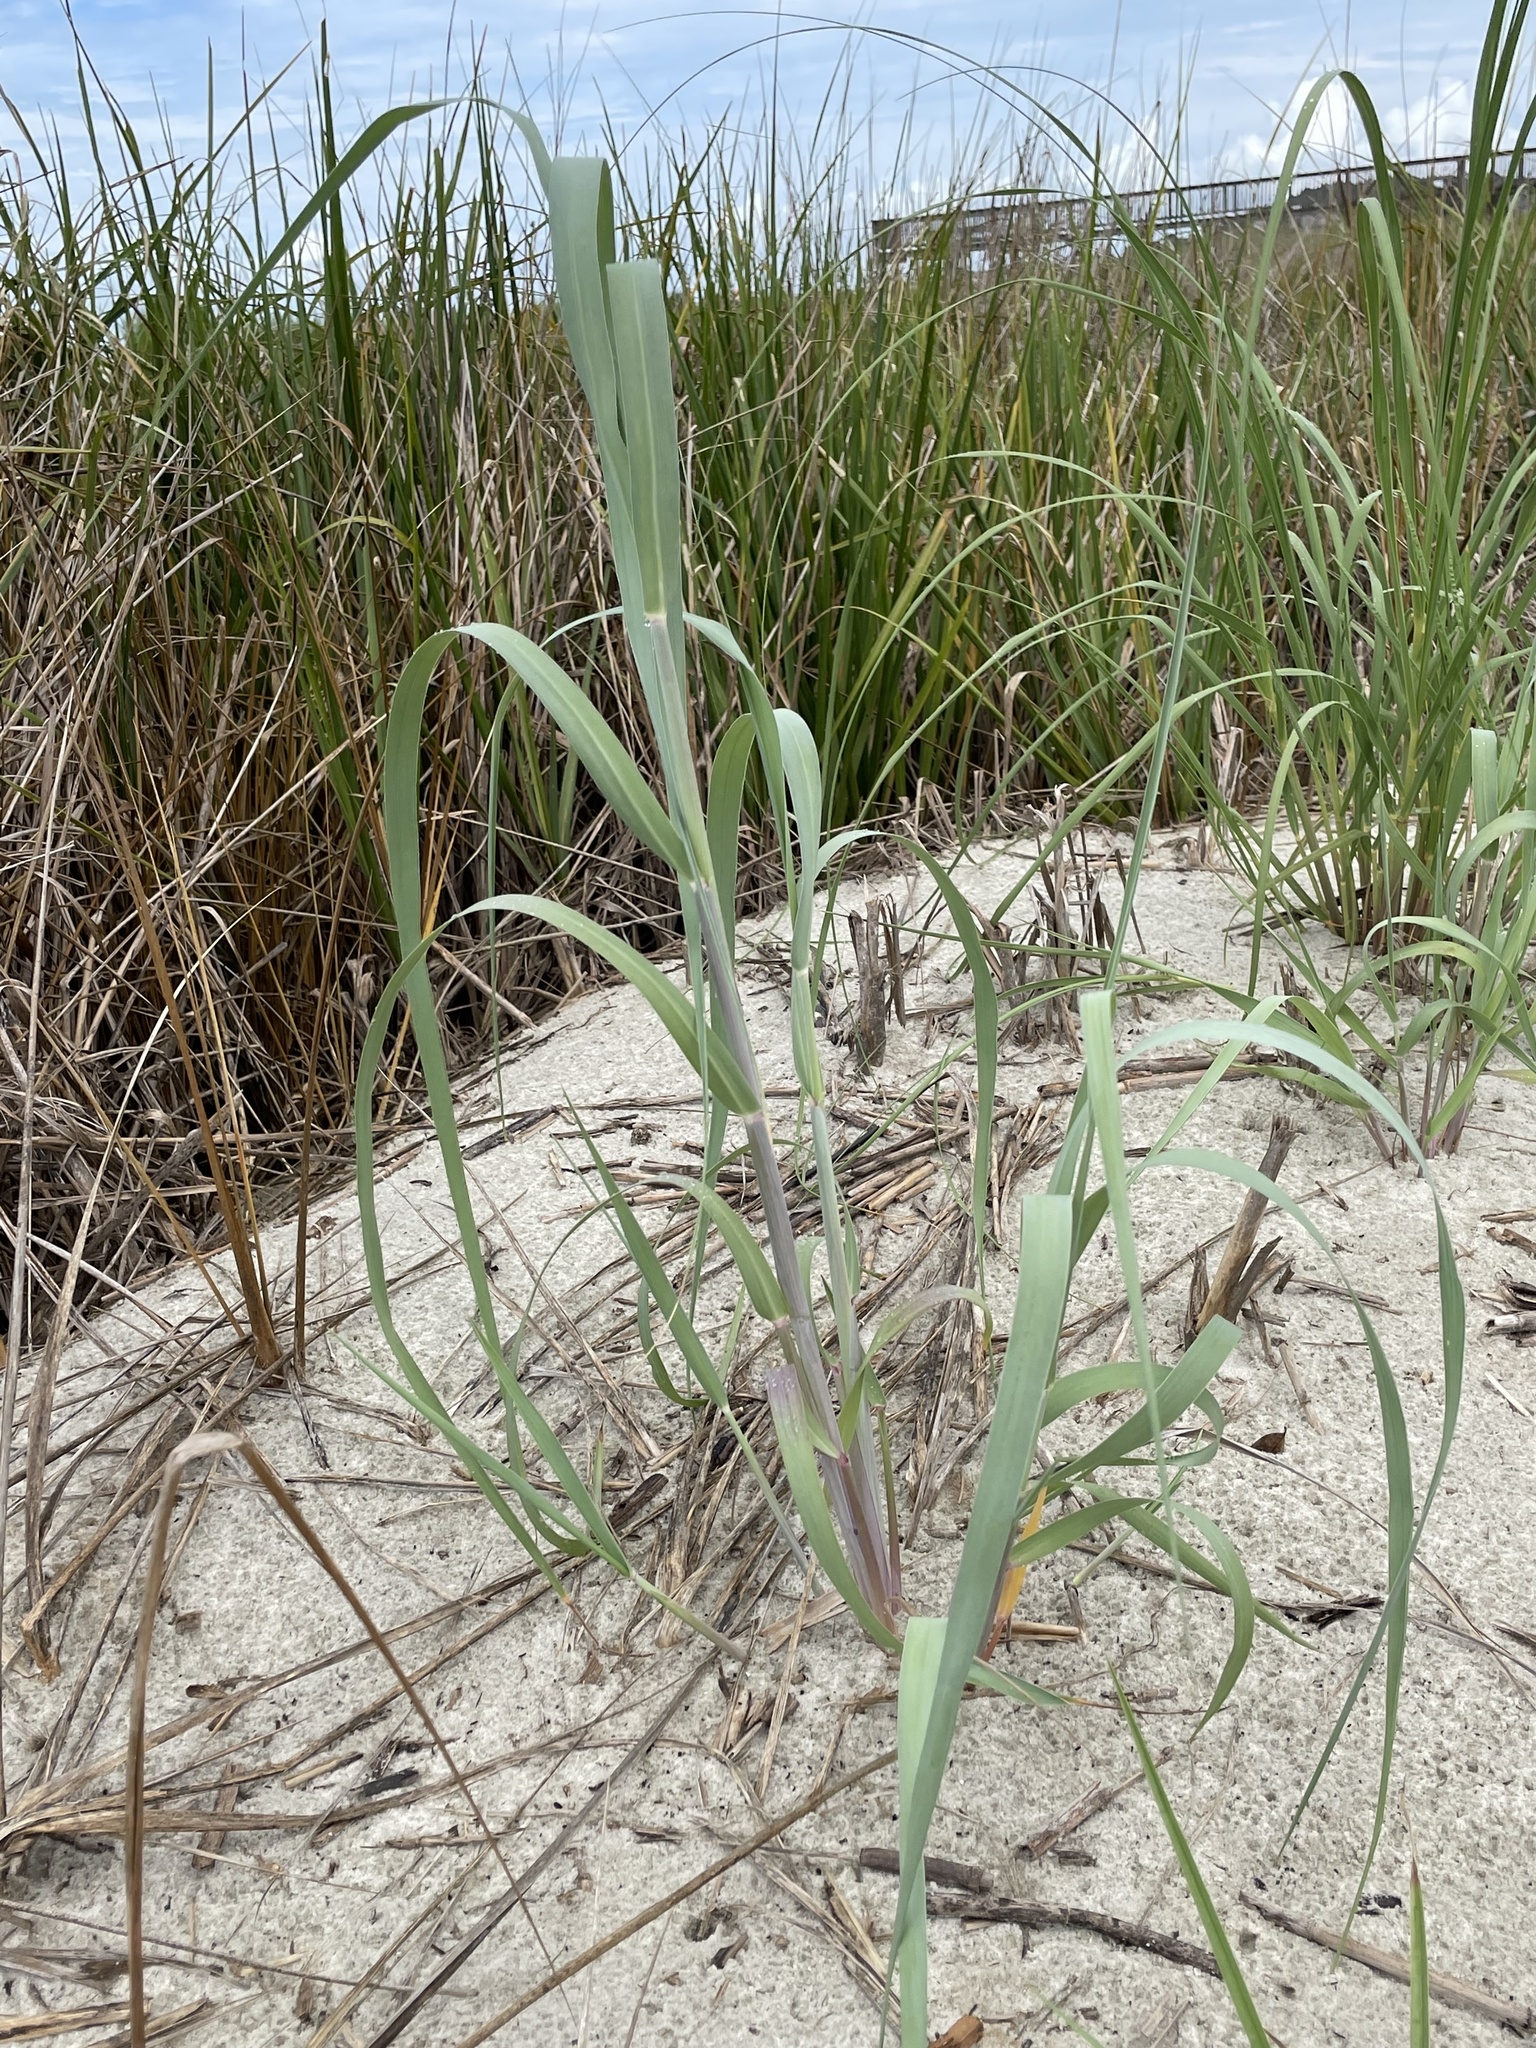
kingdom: Plantae
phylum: Tracheophyta
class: Liliopsida
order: Poales
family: Poaceae
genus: Panicum
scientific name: Panicum amarum
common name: Bitter panicum
